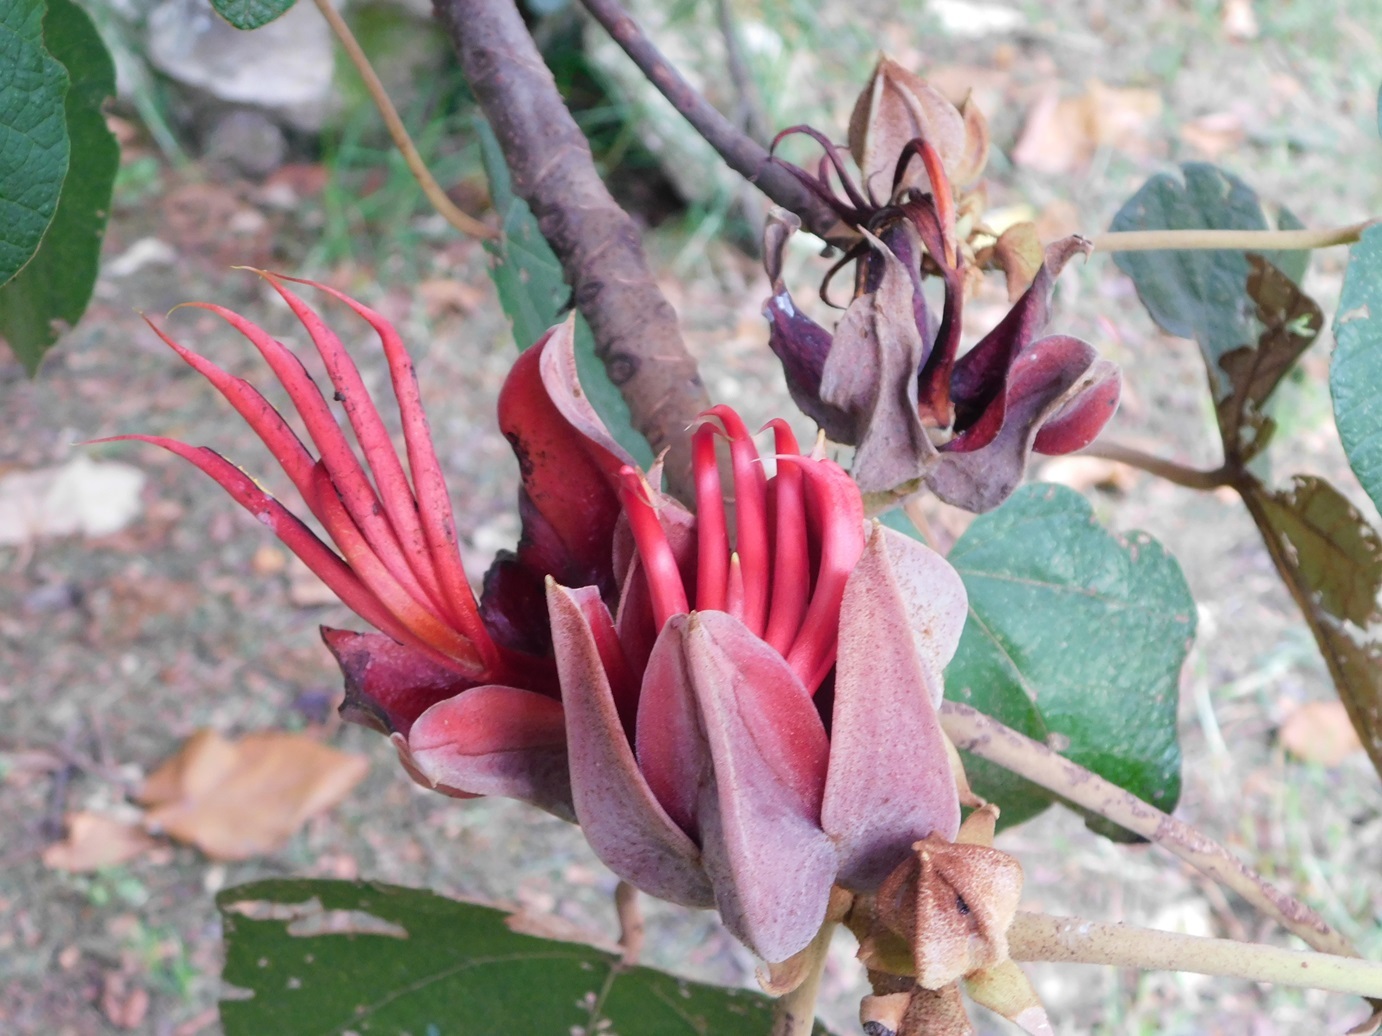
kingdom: Plantae
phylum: Tracheophyta
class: Magnoliopsida
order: Malvales
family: Malvaceae
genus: Chiranthodendron
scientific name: Chiranthodendron pentadactylon
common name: Mexican-hat-plant
